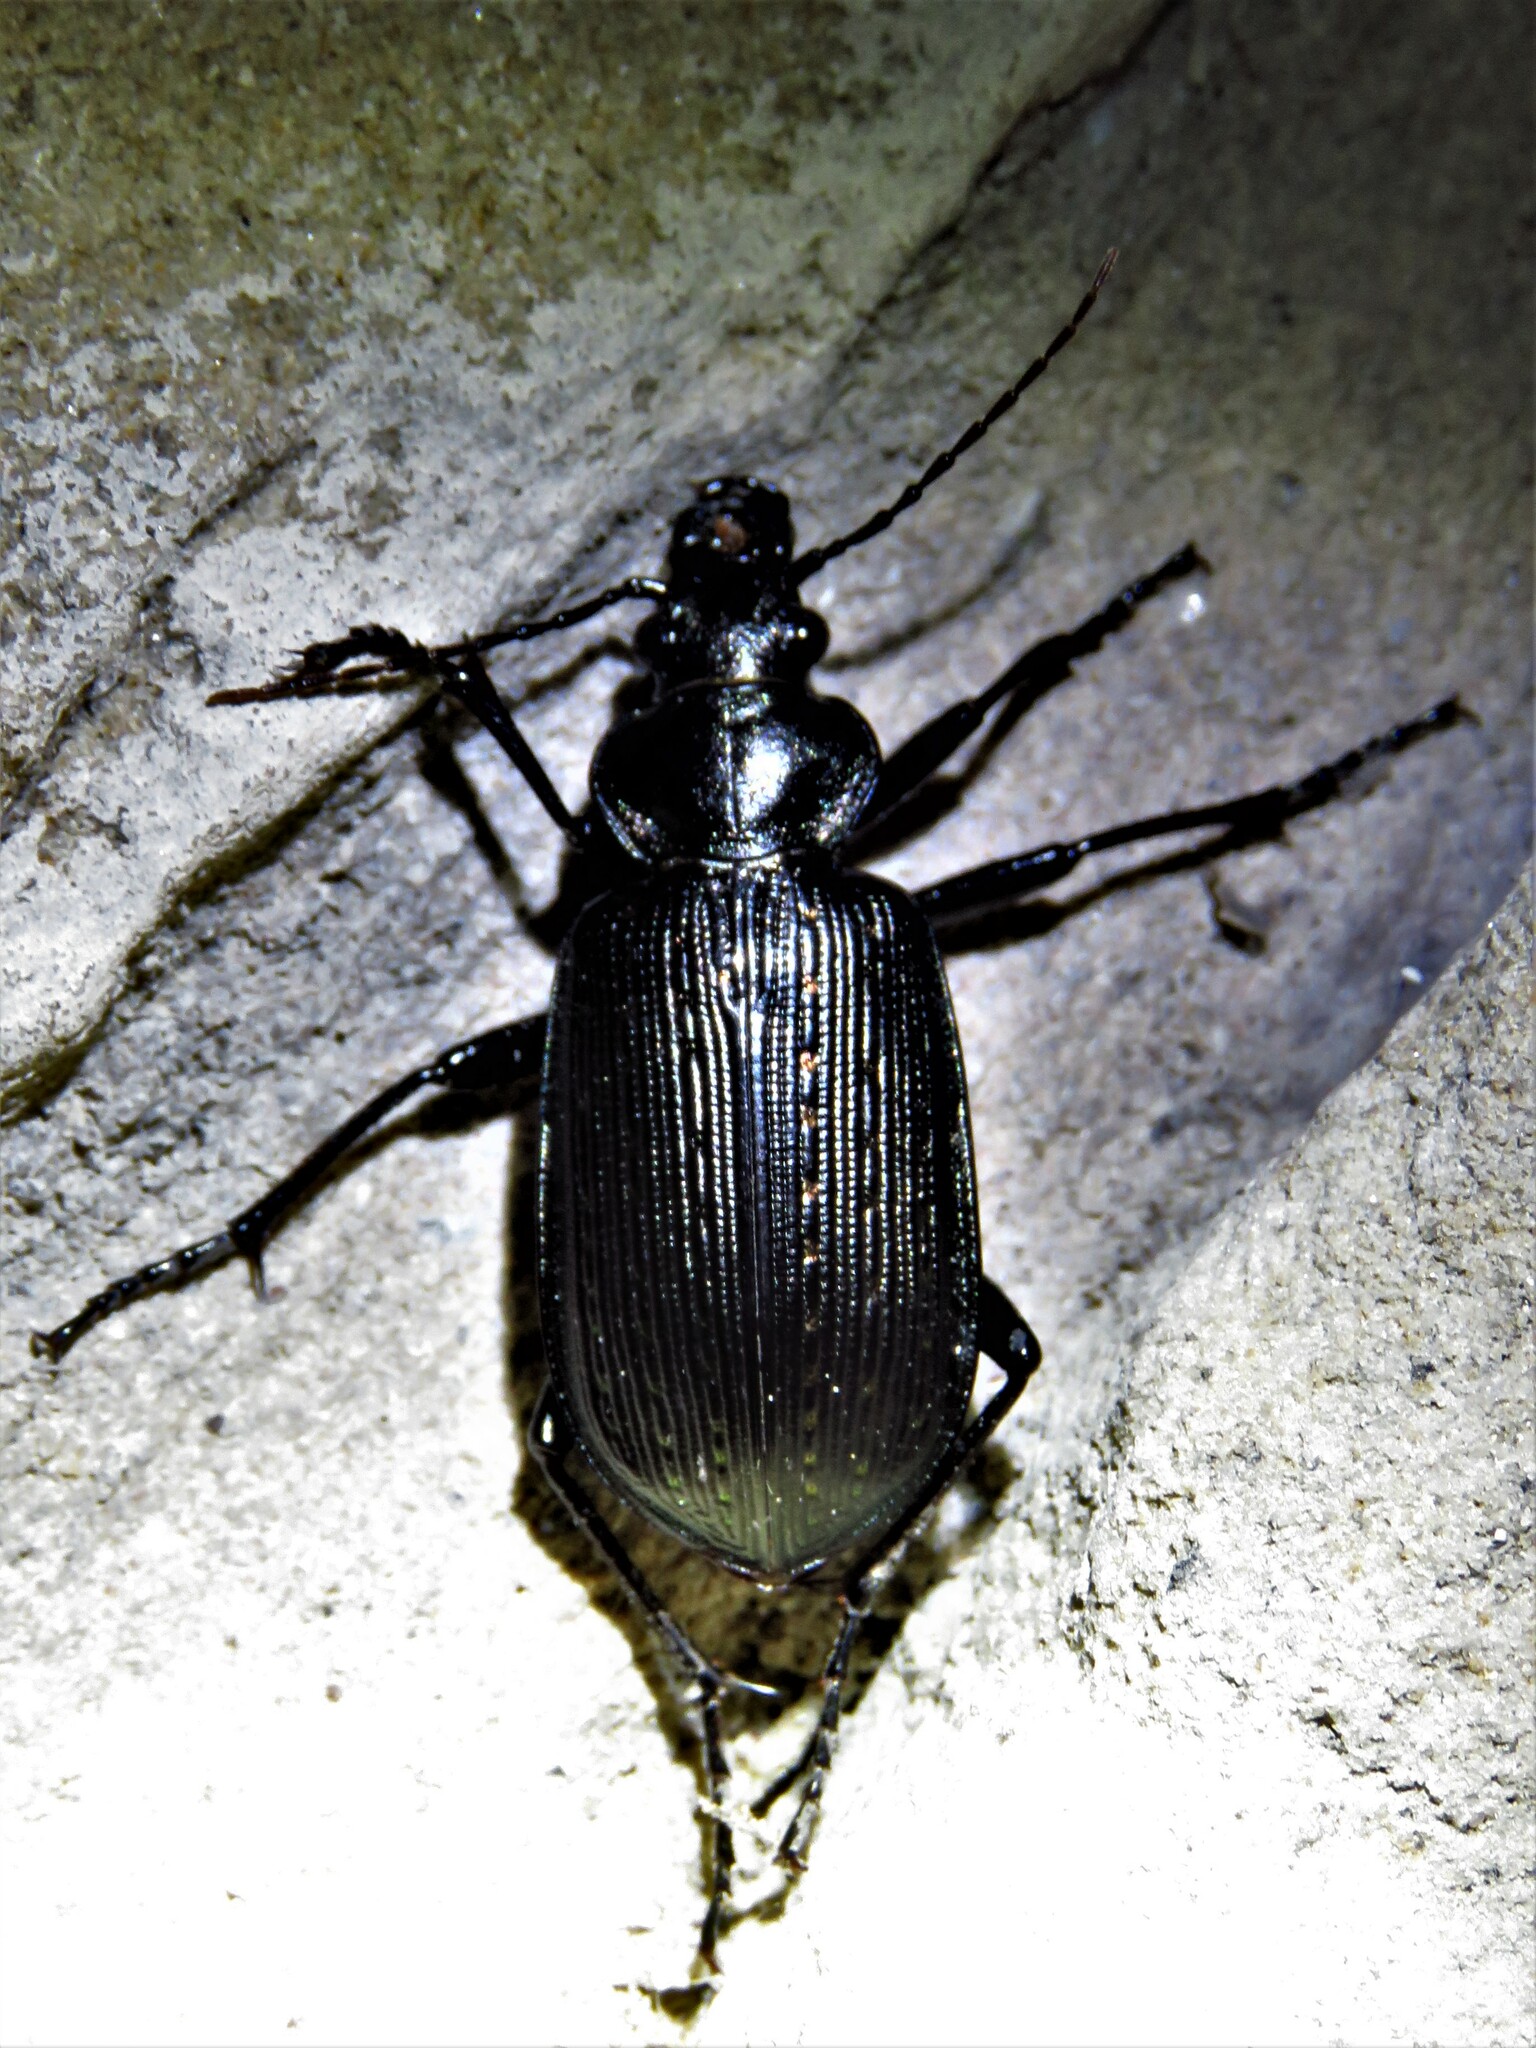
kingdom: Animalia
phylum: Arthropoda
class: Insecta
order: Coleoptera
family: Carabidae
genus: Calosoma
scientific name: Calosoma sayi
